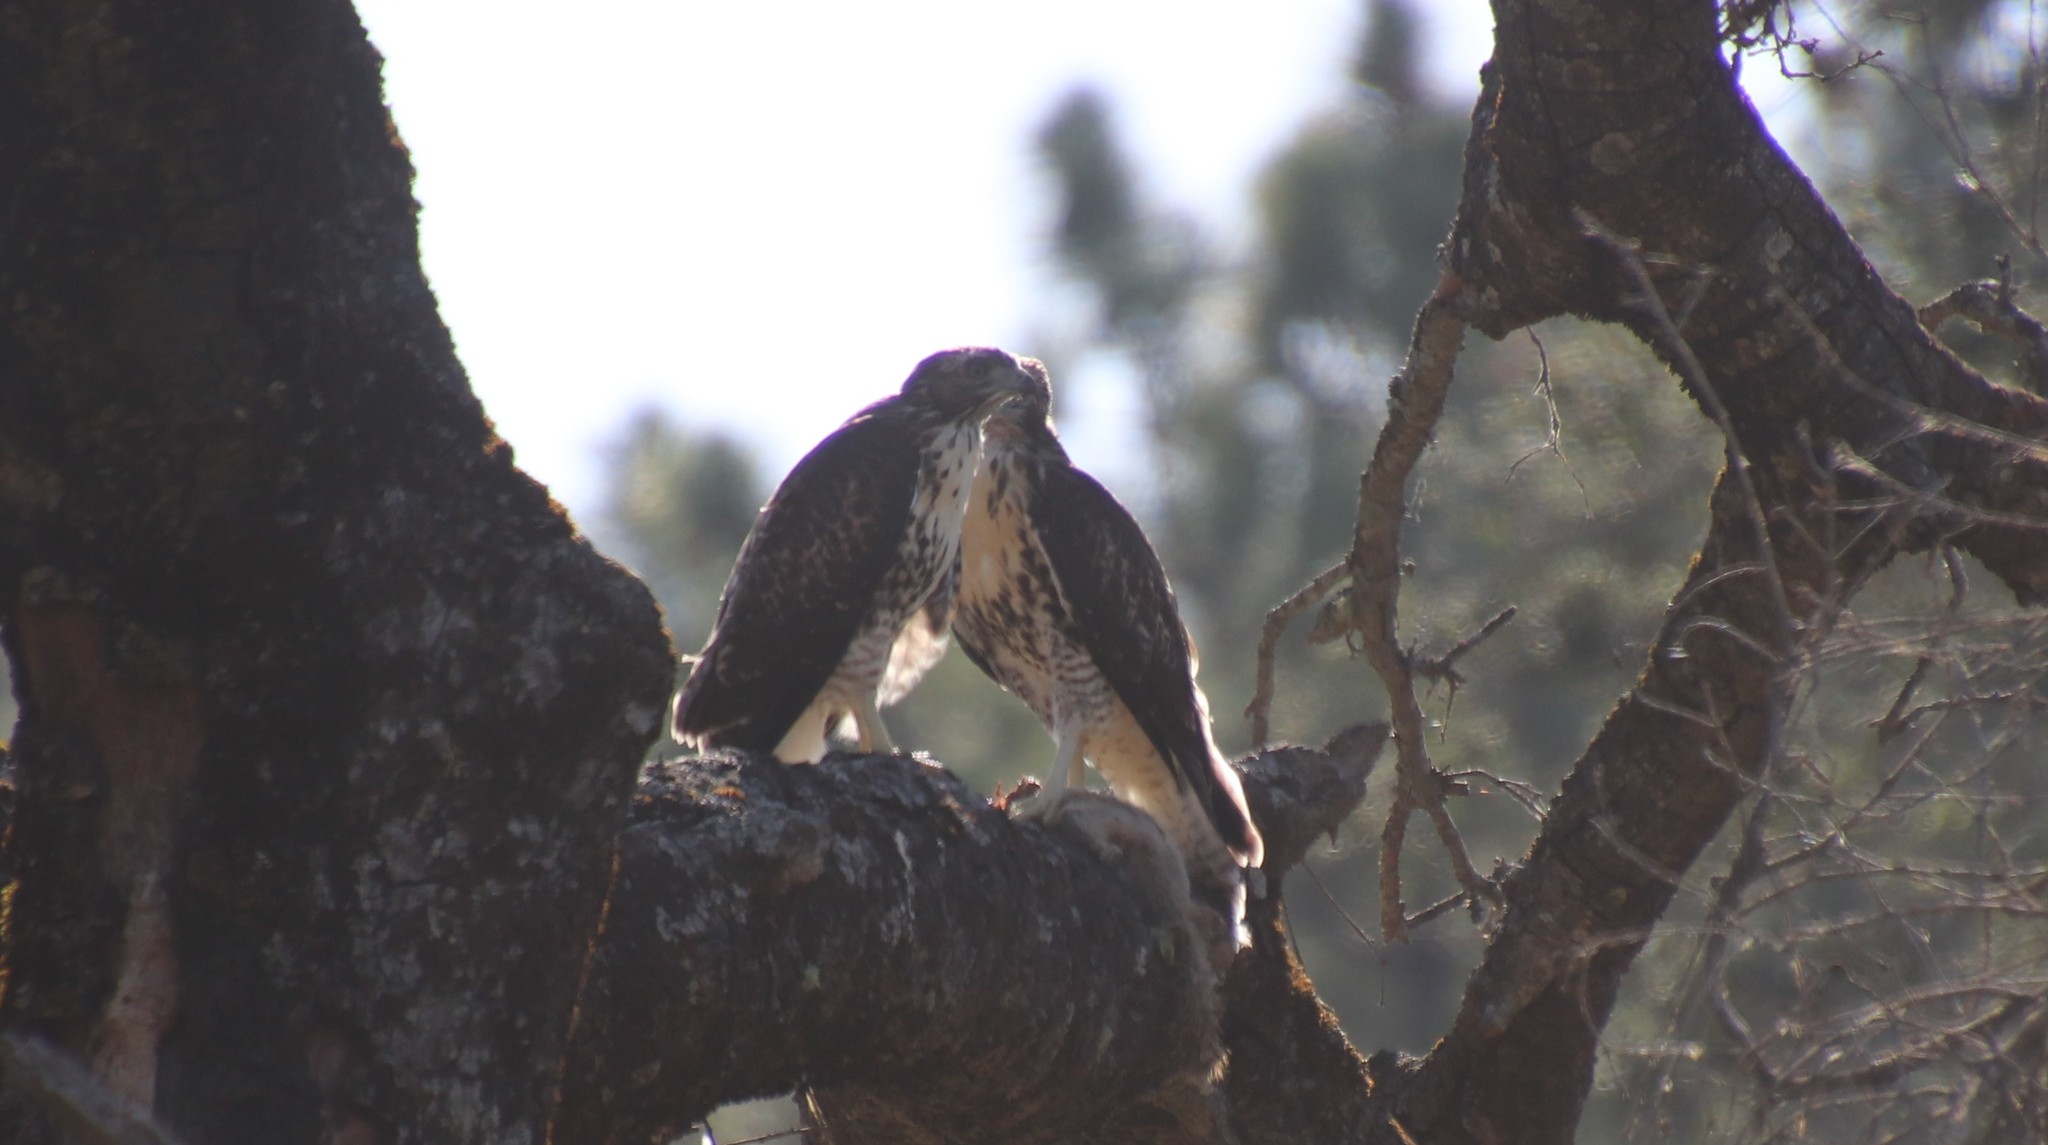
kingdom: Animalia
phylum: Chordata
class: Aves
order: Accipitriformes
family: Accipitridae
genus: Buteo
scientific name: Buteo jamaicensis
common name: Red-tailed hawk
